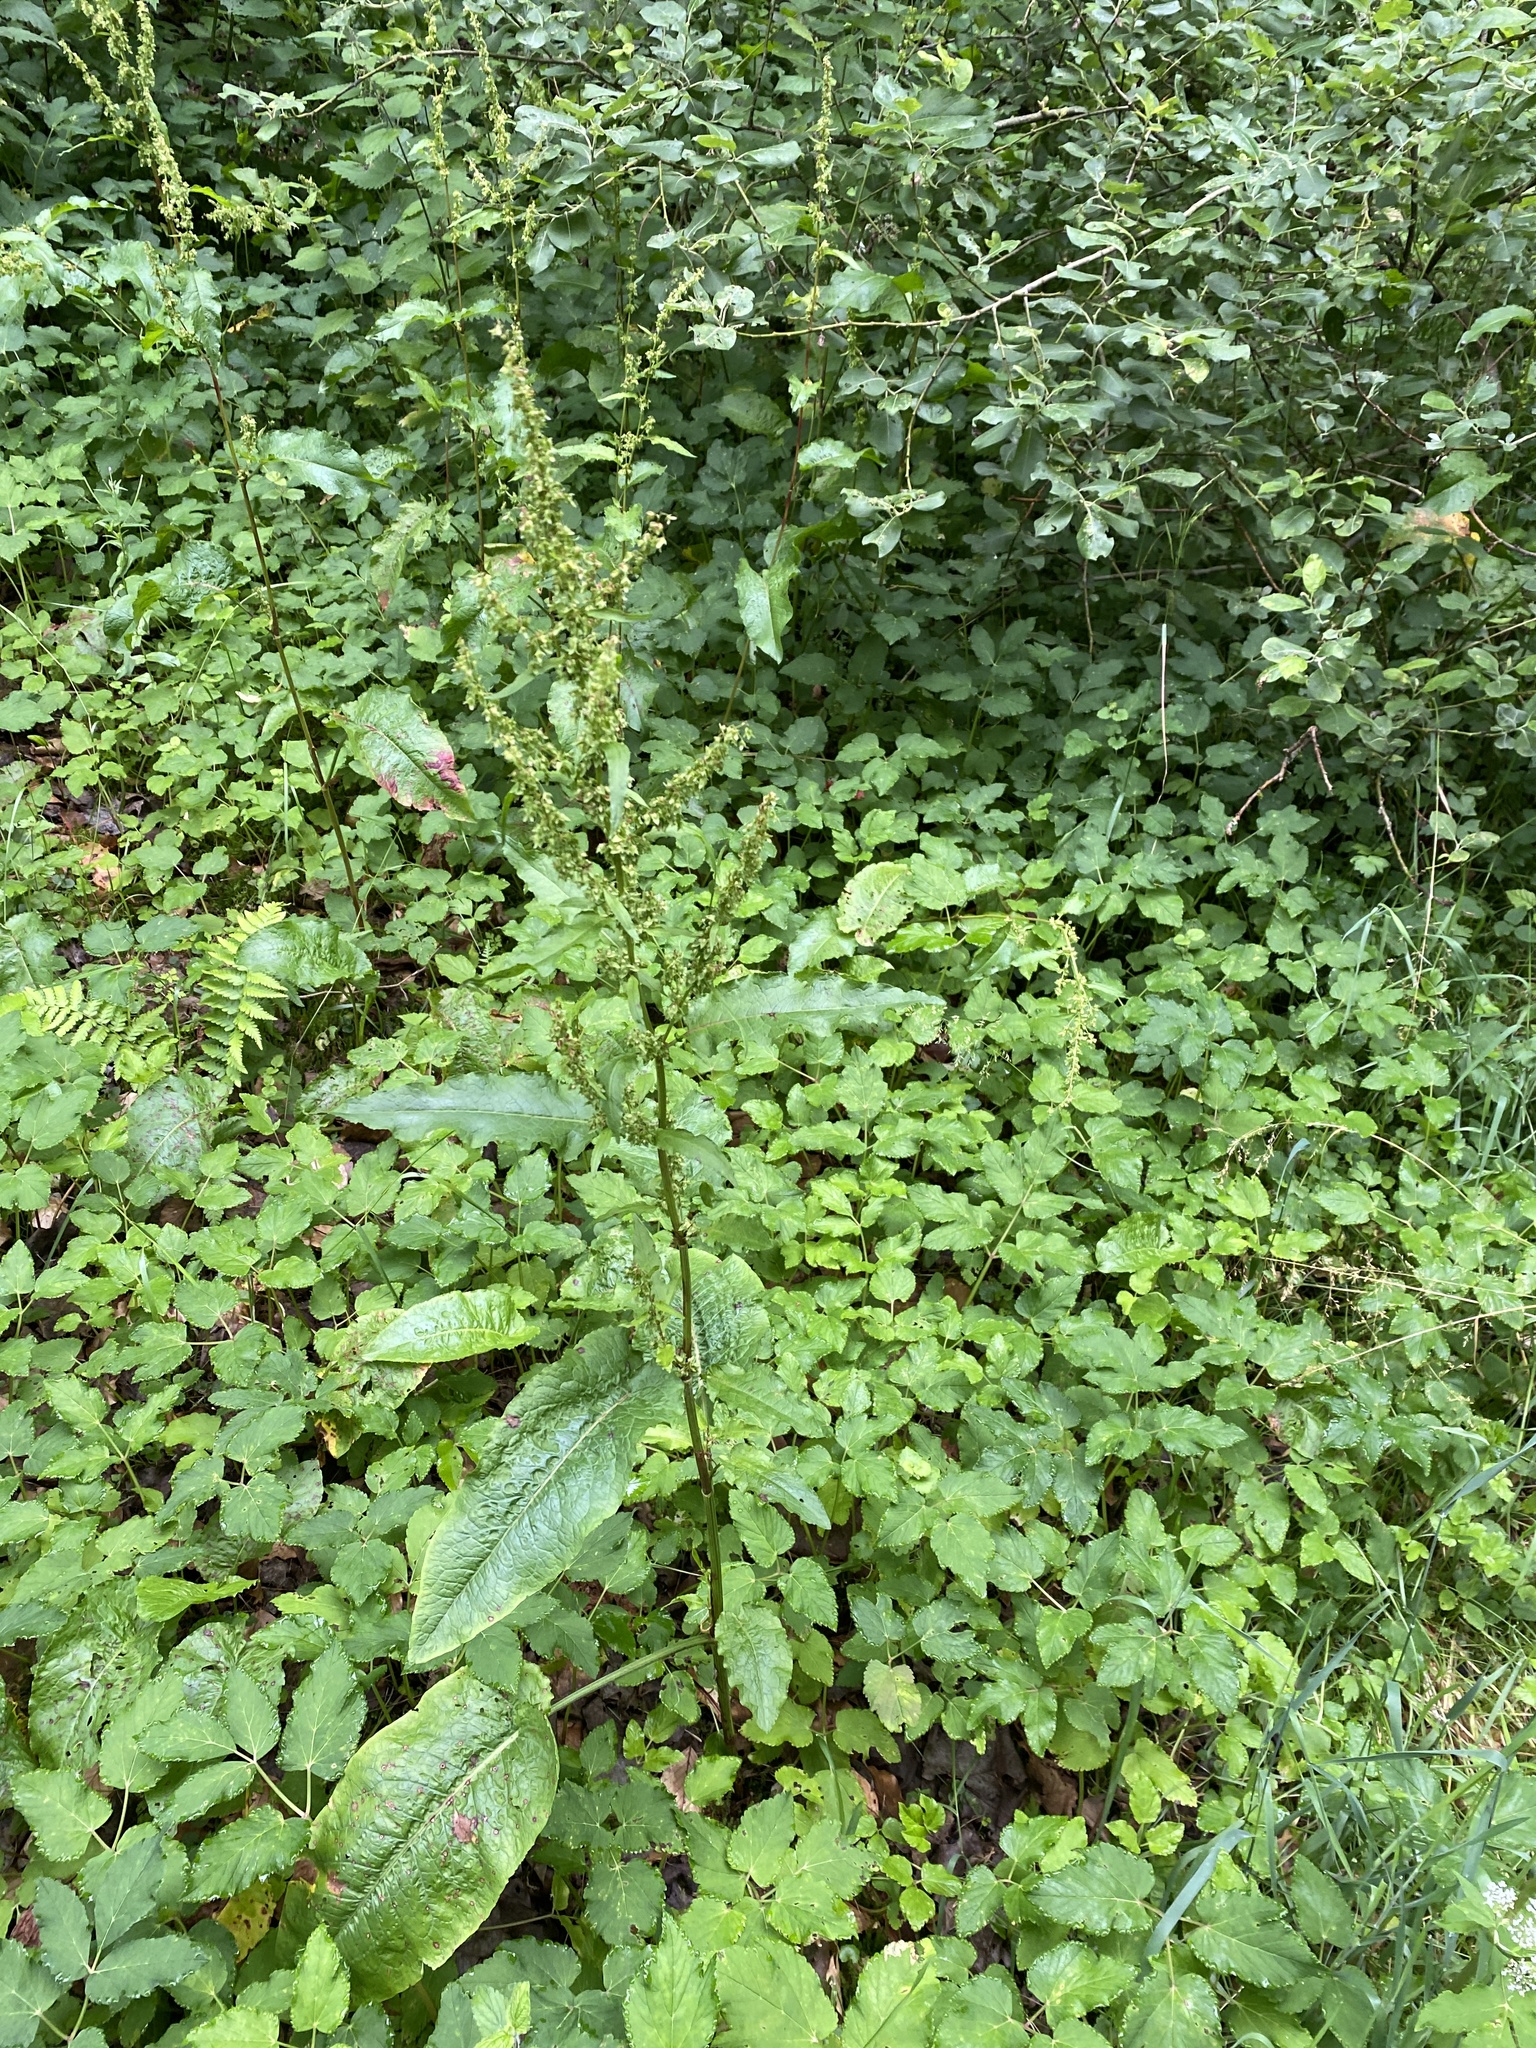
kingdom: Plantae
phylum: Tracheophyta
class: Magnoliopsida
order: Caryophyllales
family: Polygonaceae
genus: Rumex
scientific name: Rumex obtusifolius
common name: Bitter dock
